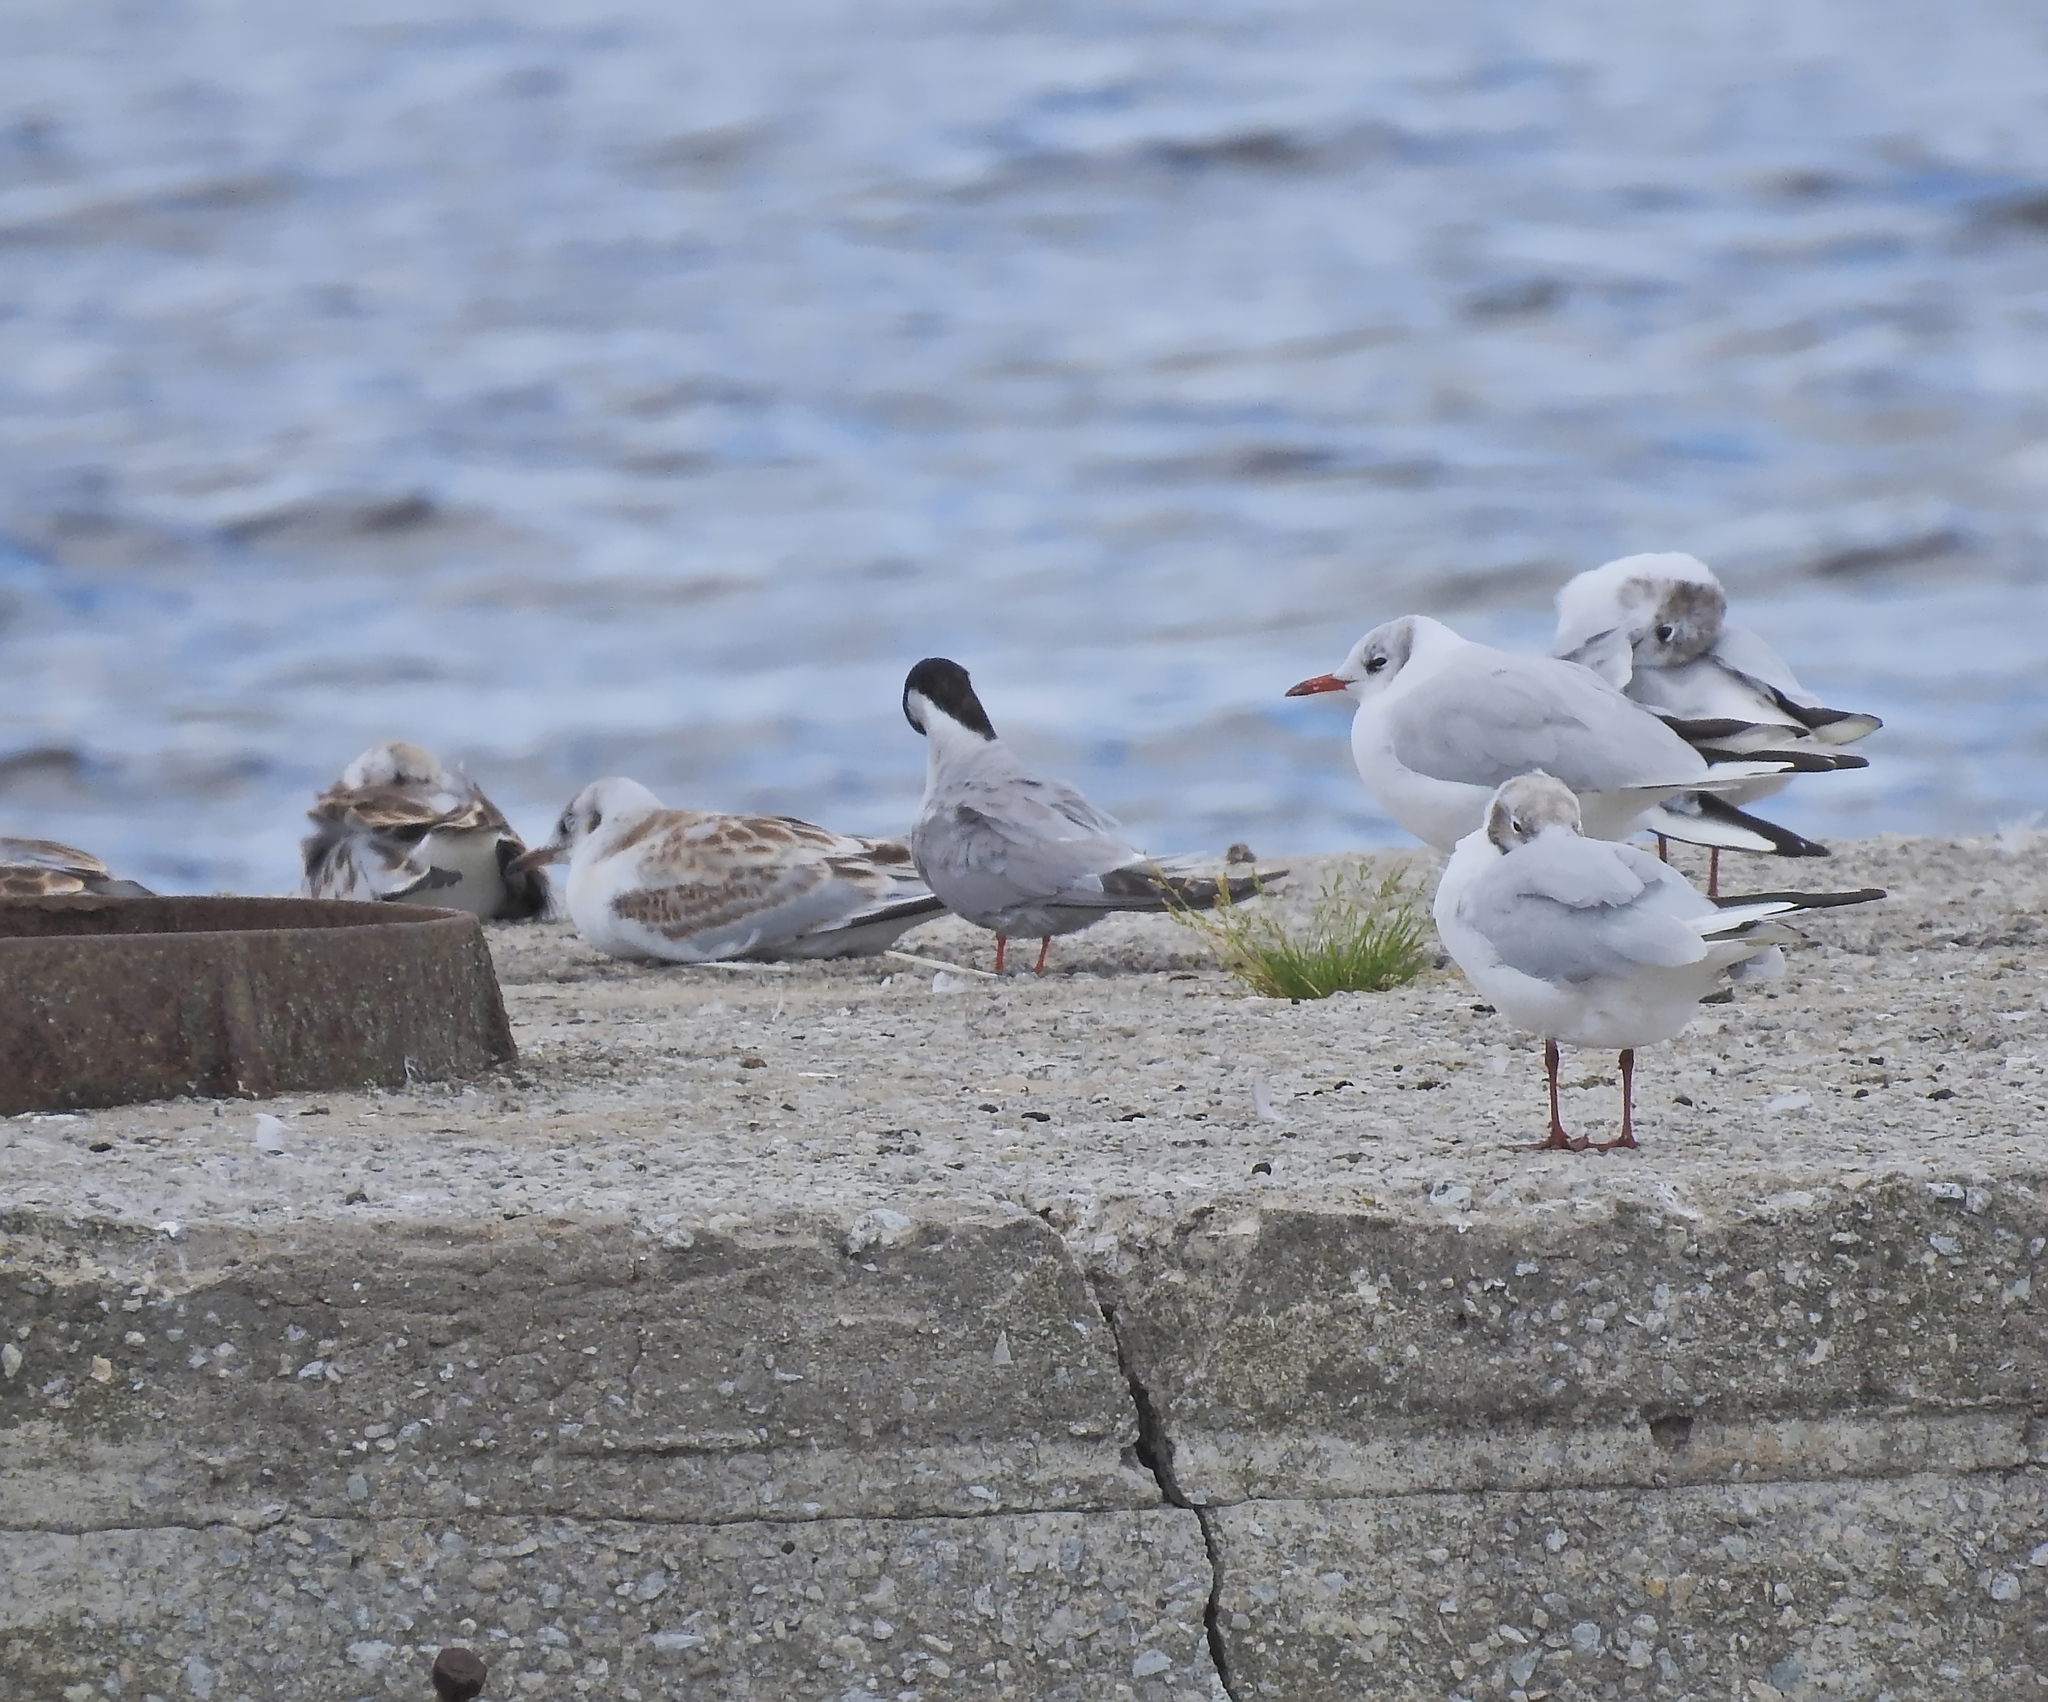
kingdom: Animalia
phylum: Chordata
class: Aves
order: Charadriiformes
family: Laridae
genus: Sterna
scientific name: Sterna hirundo
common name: Common tern
